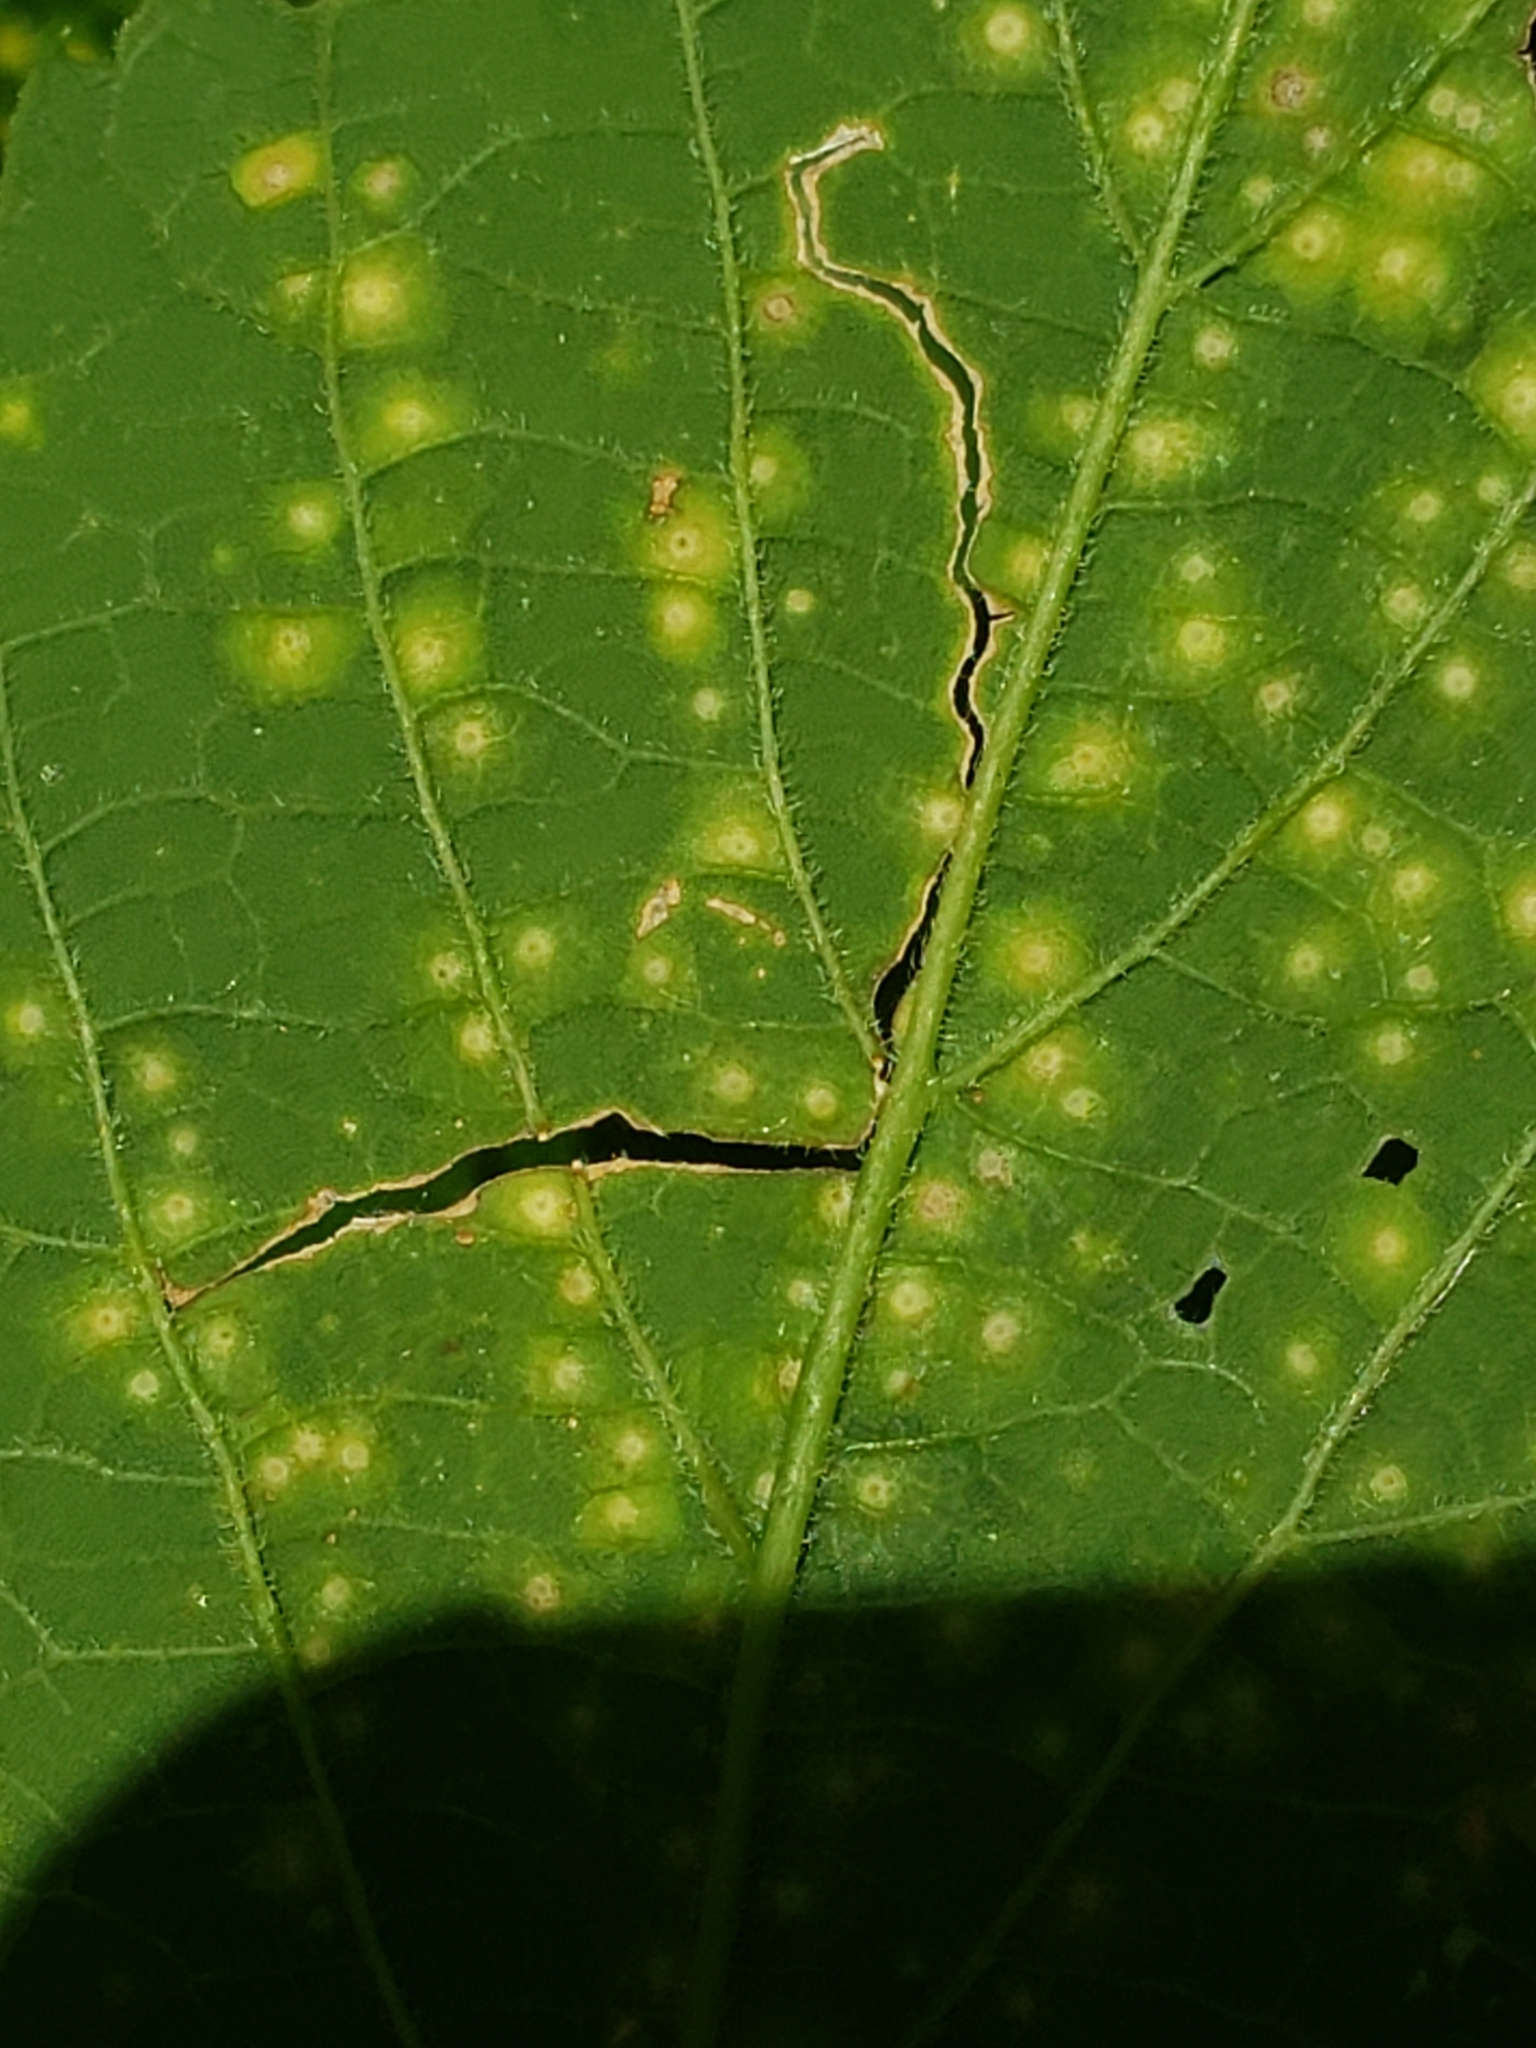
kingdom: Animalia
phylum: Arthropoda
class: Insecta
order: Hemiptera
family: Aphalaridae
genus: Pachypsylla
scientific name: Pachypsylla celtidisvesicula
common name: Hackberry blister gall psyllid
